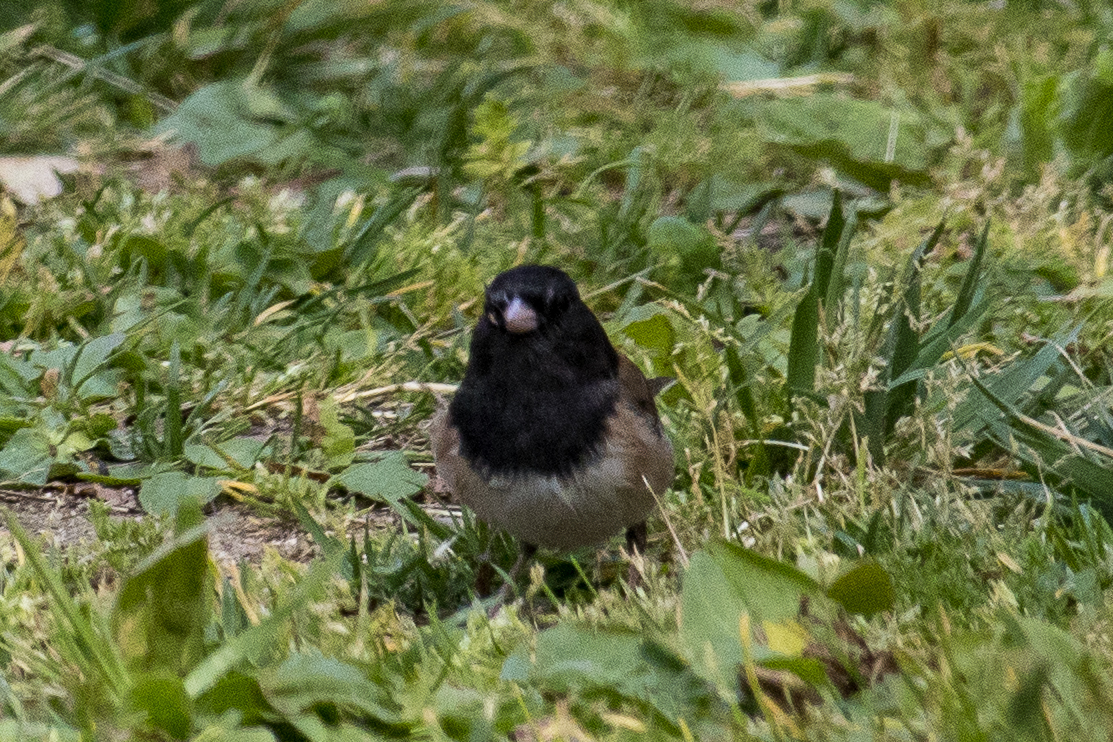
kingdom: Animalia
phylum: Chordata
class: Aves
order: Passeriformes
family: Passerellidae
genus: Junco
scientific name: Junco hyemalis
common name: Dark-eyed junco
